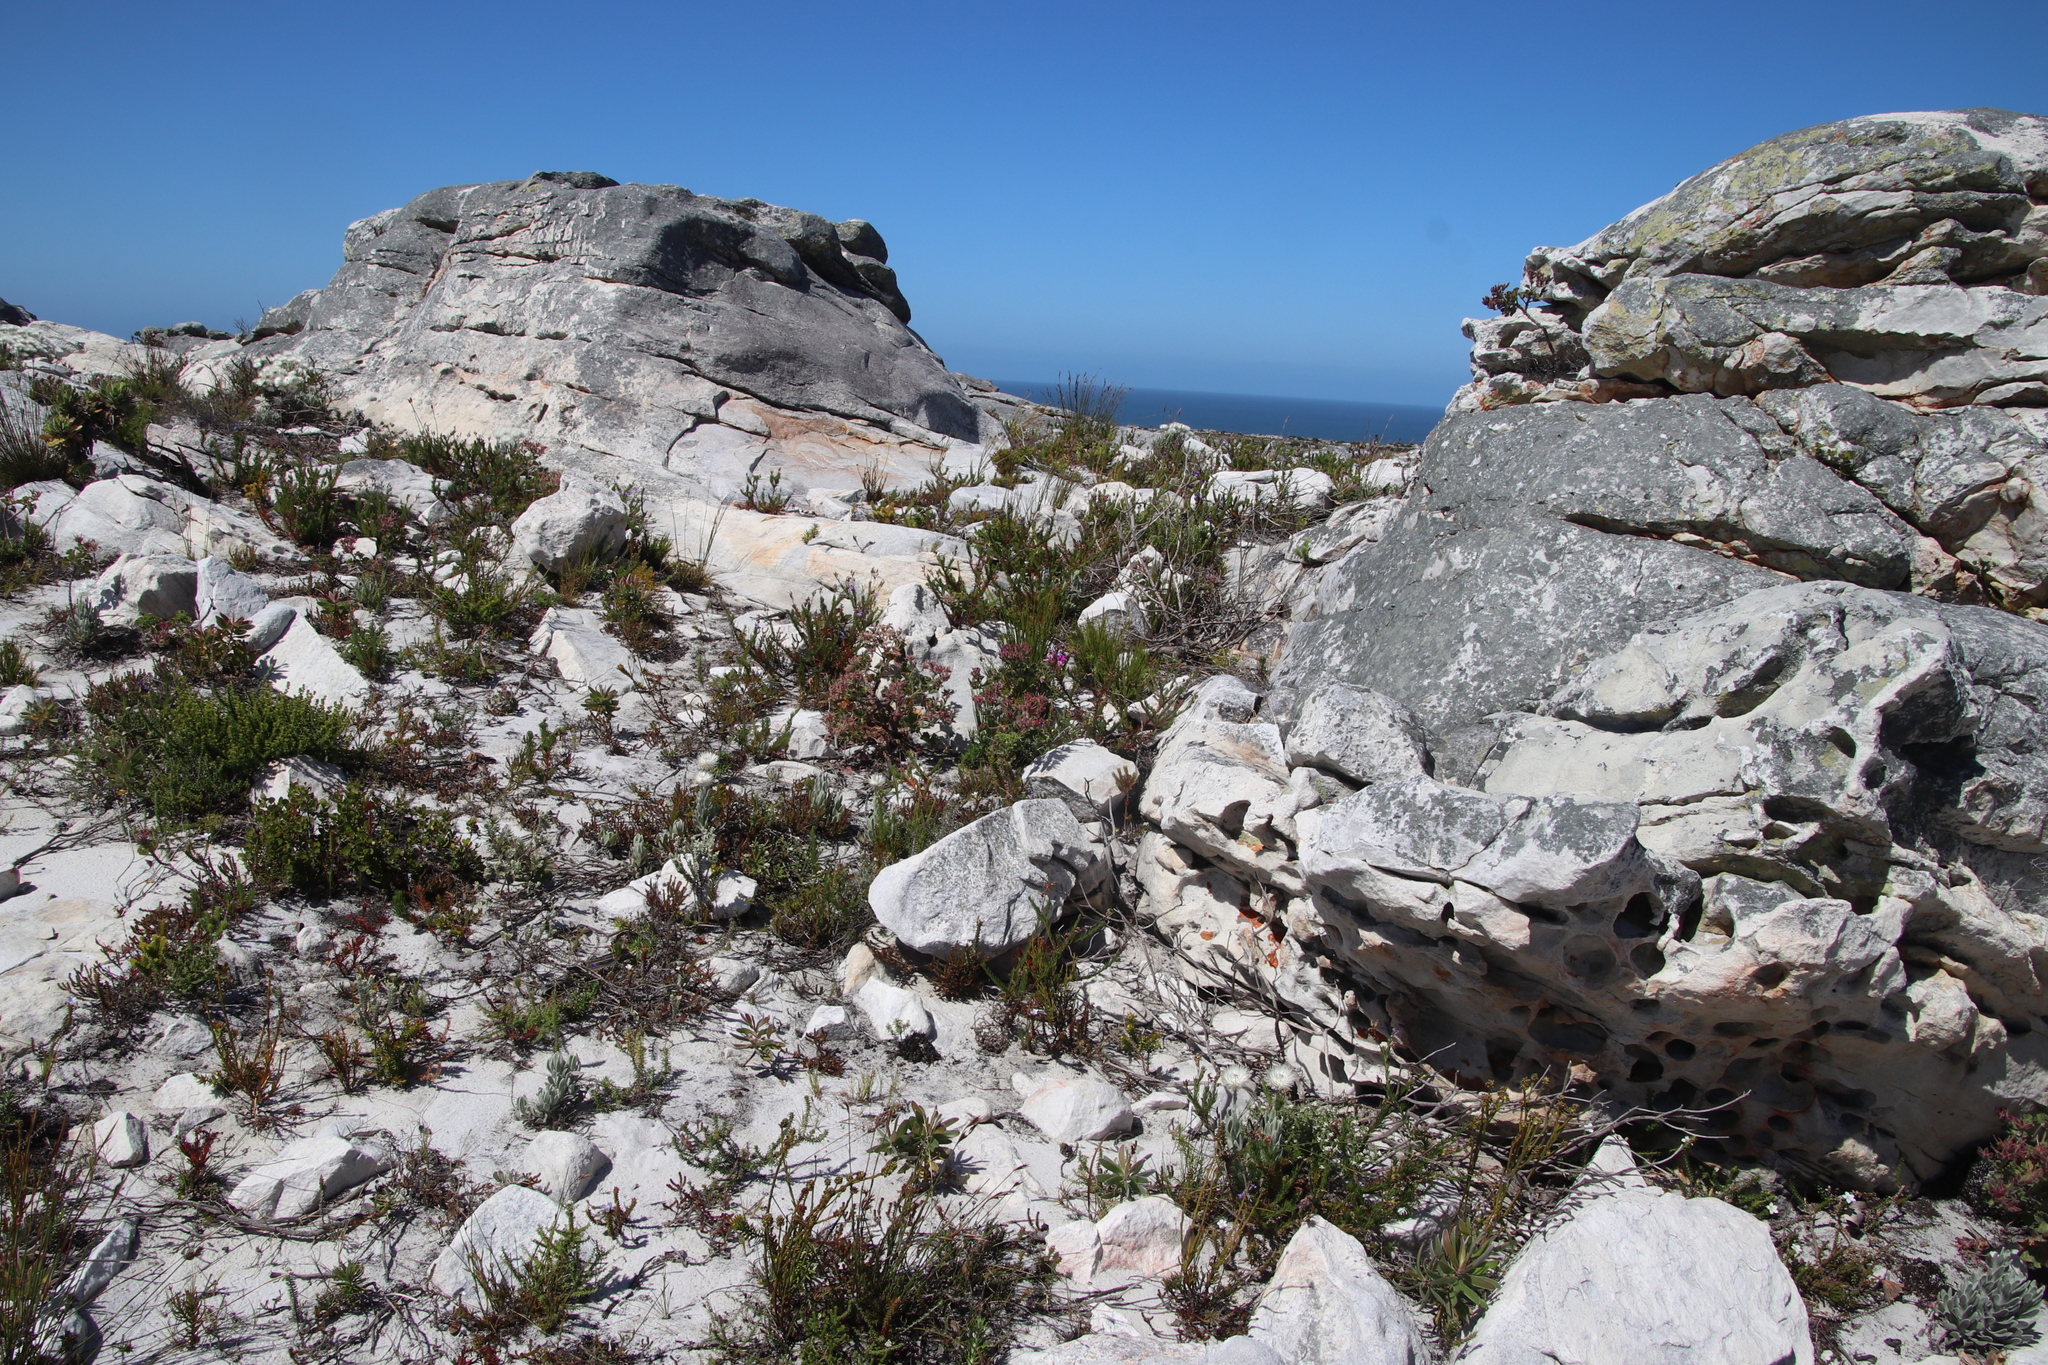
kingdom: Plantae
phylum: Tracheophyta
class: Magnoliopsida
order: Geraniales
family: Geraniaceae
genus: Pelargonium
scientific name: Pelargonium cucullatum
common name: Tree pelargonium
